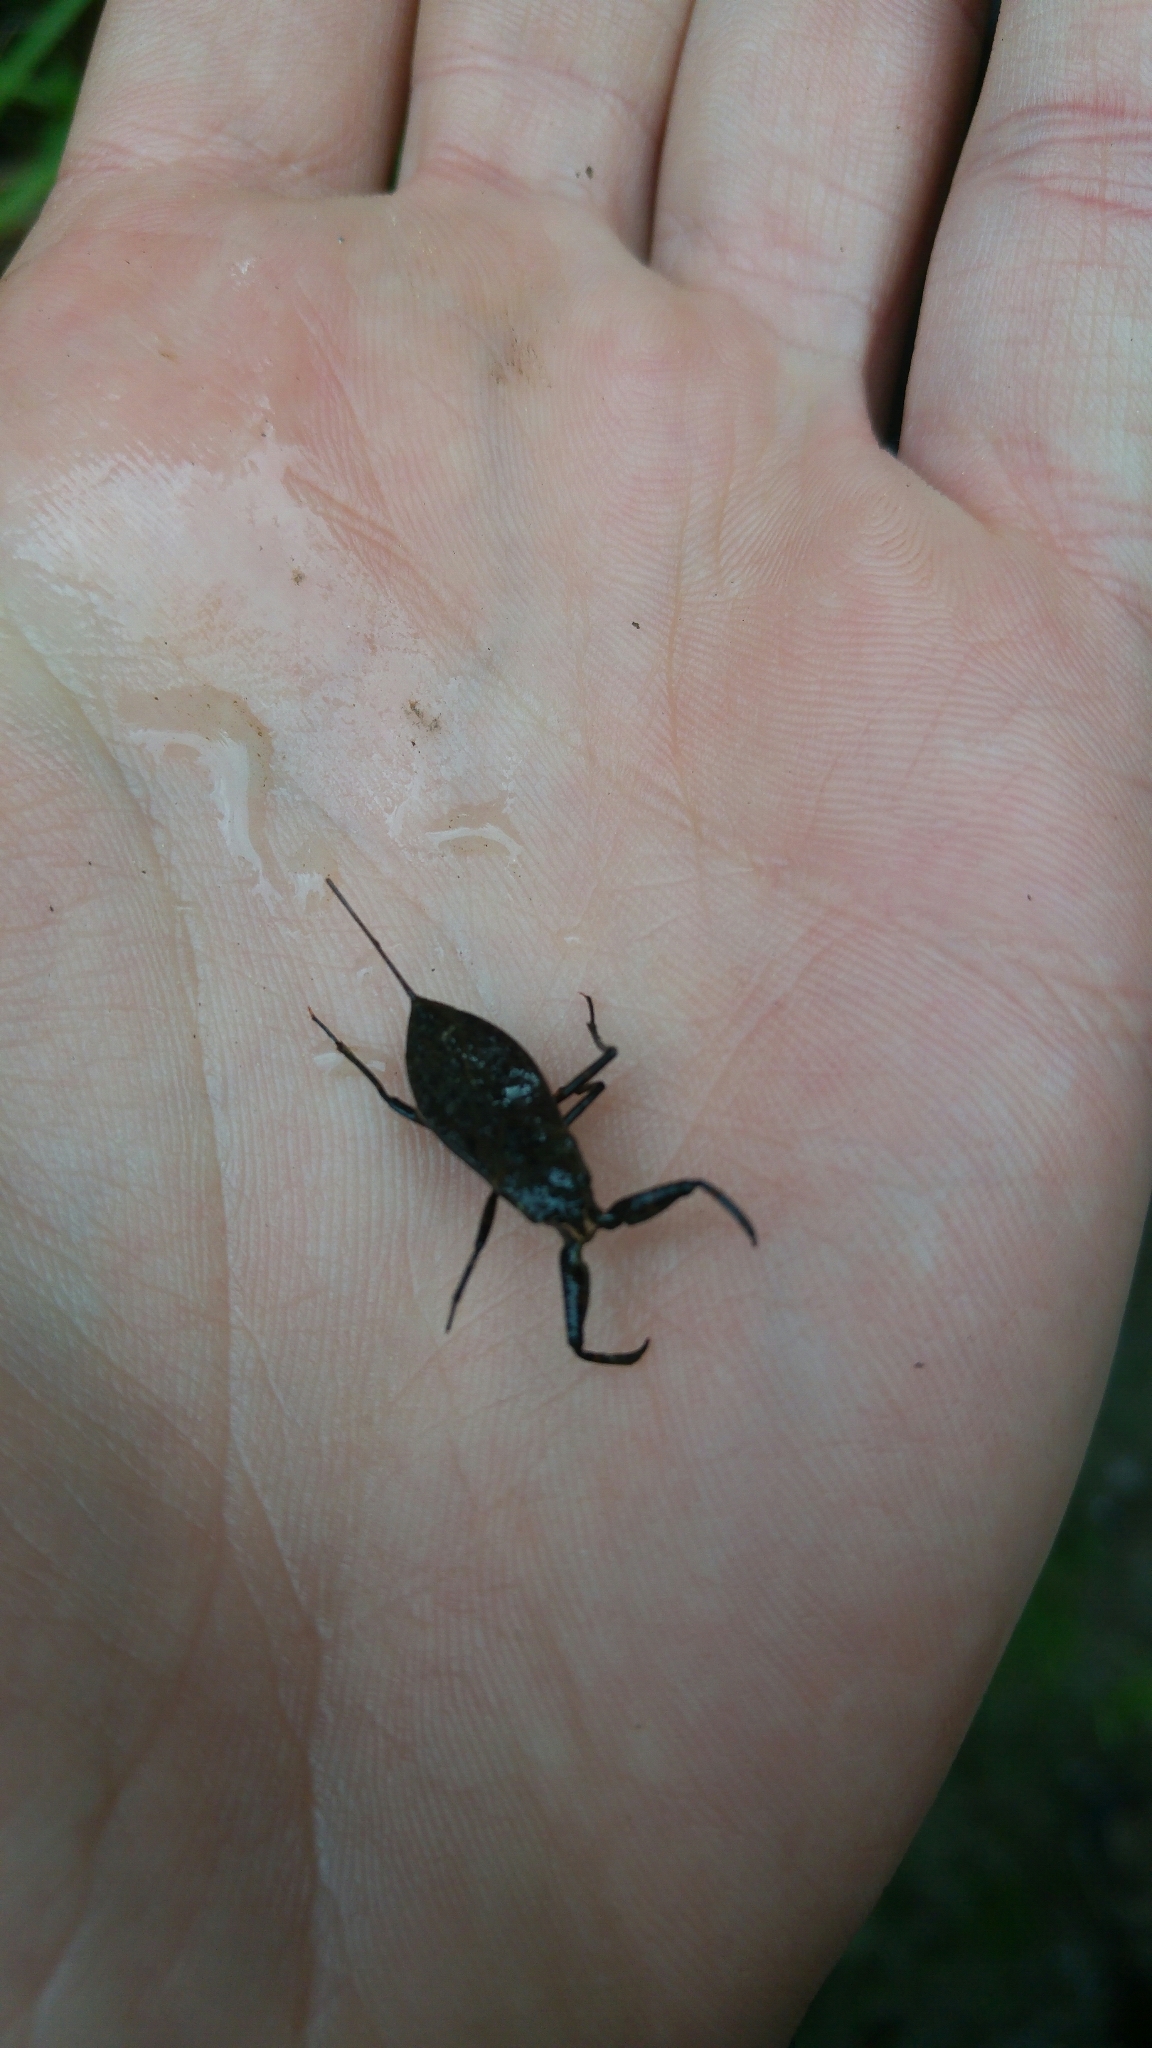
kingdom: Animalia
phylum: Arthropoda
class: Insecta
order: Hemiptera
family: Nepidae
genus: Nepa
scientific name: Nepa cinerea
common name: Water scorpion
